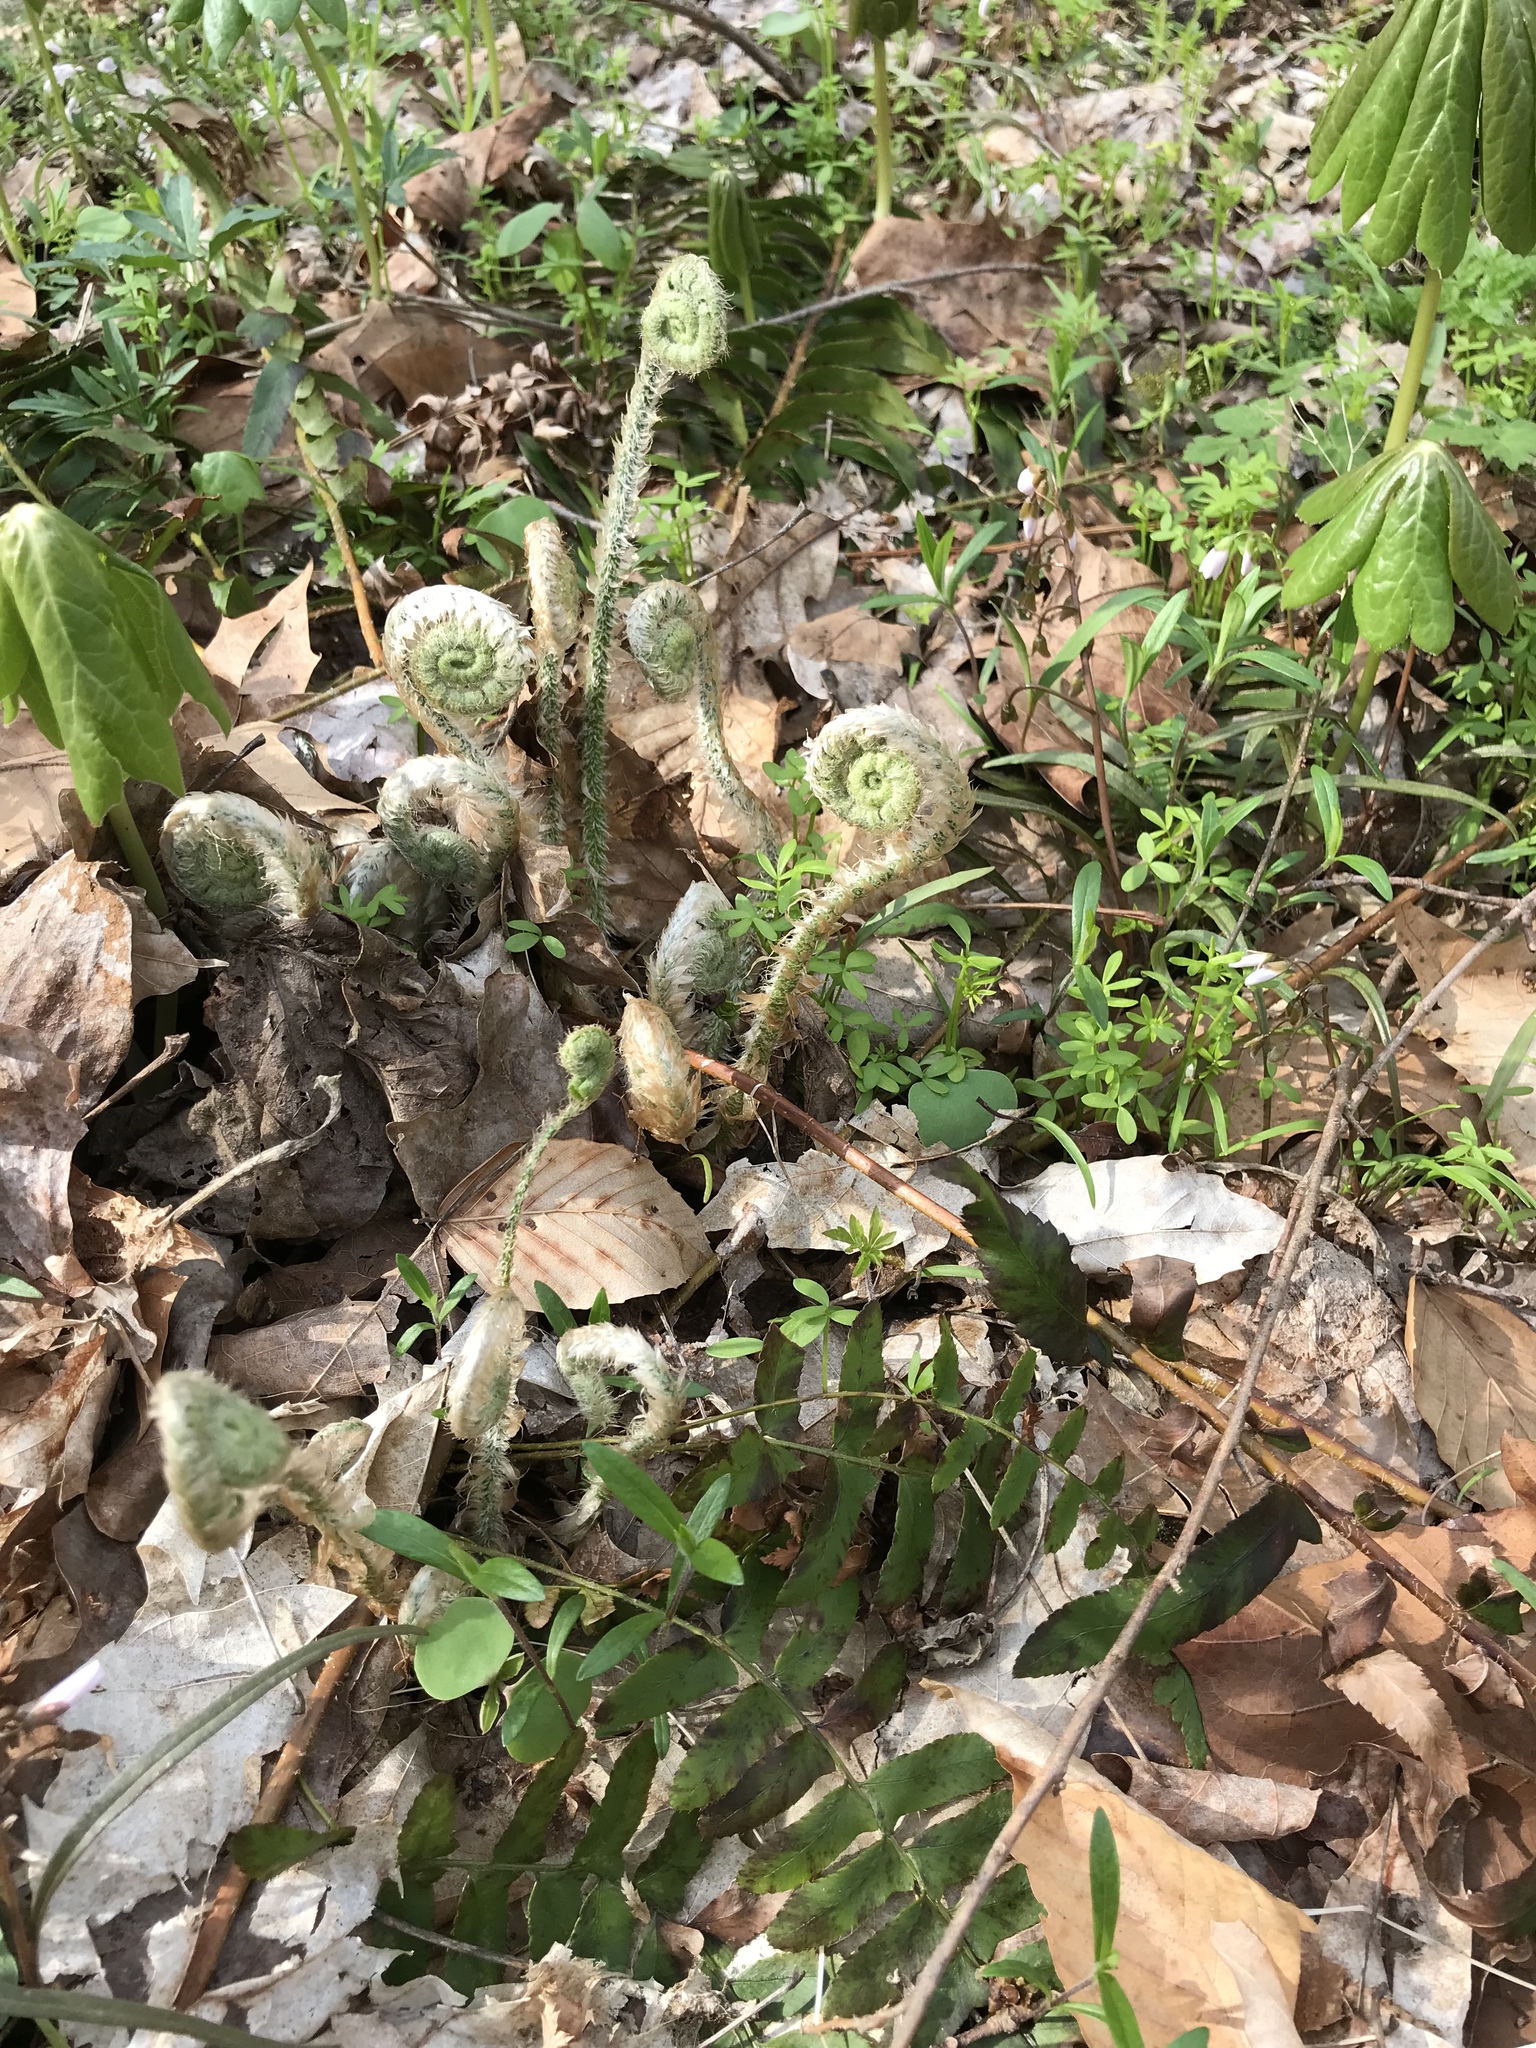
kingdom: Plantae
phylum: Tracheophyta
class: Polypodiopsida
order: Polypodiales
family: Dryopteridaceae
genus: Polystichum
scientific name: Polystichum acrostichoides
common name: Christmas fern
